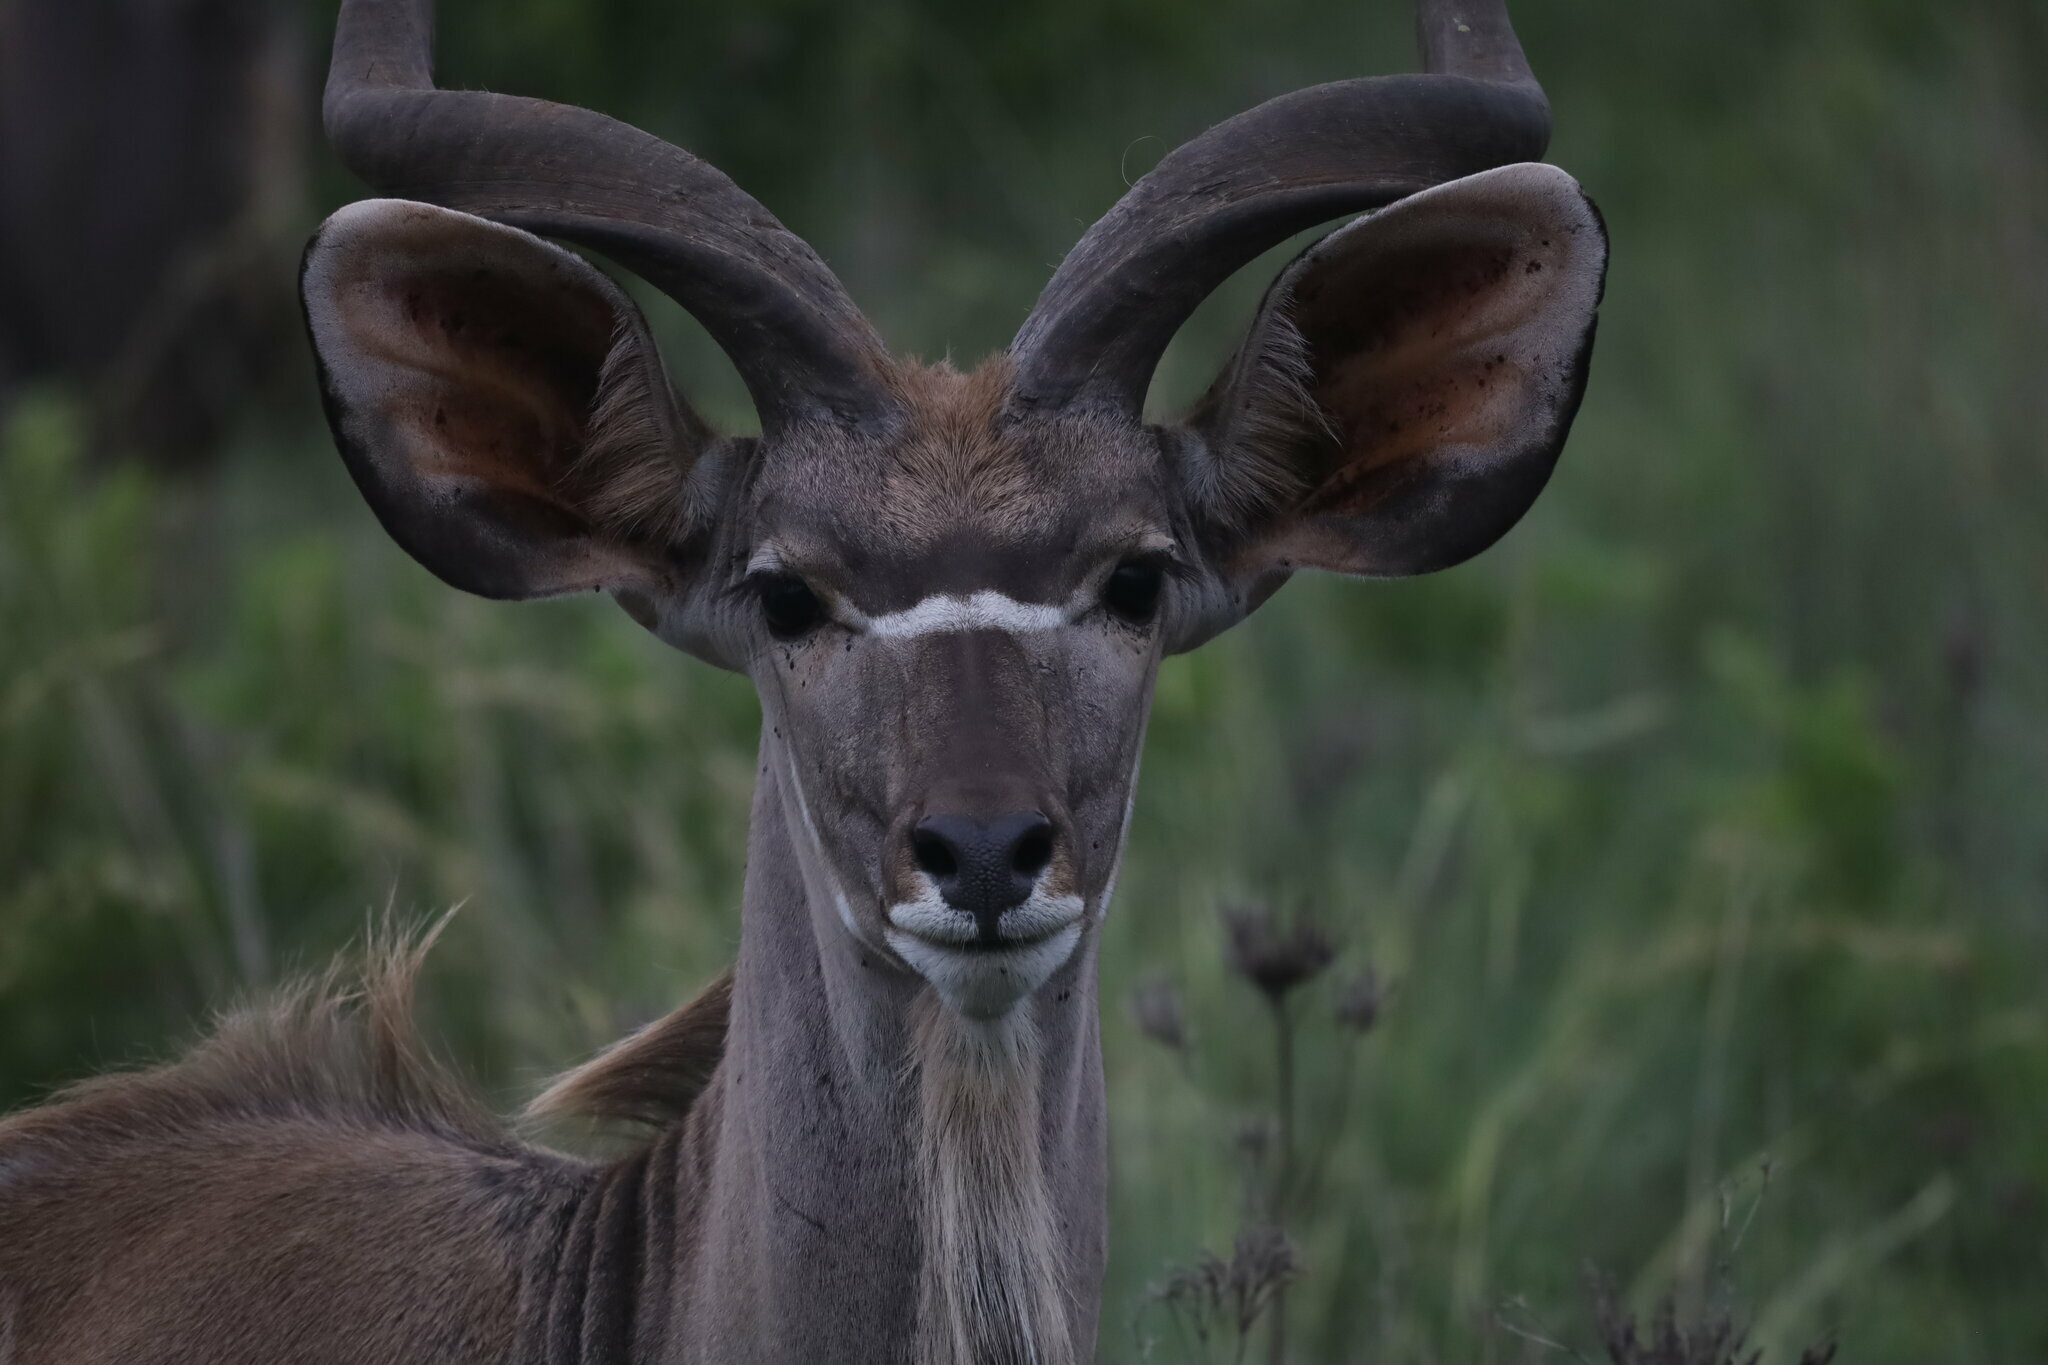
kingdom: Animalia
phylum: Chordata
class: Mammalia
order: Artiodactyla
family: Bovidae
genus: Tragelaphus
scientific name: Tragelaphus strepsiceros
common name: Greater kudu
